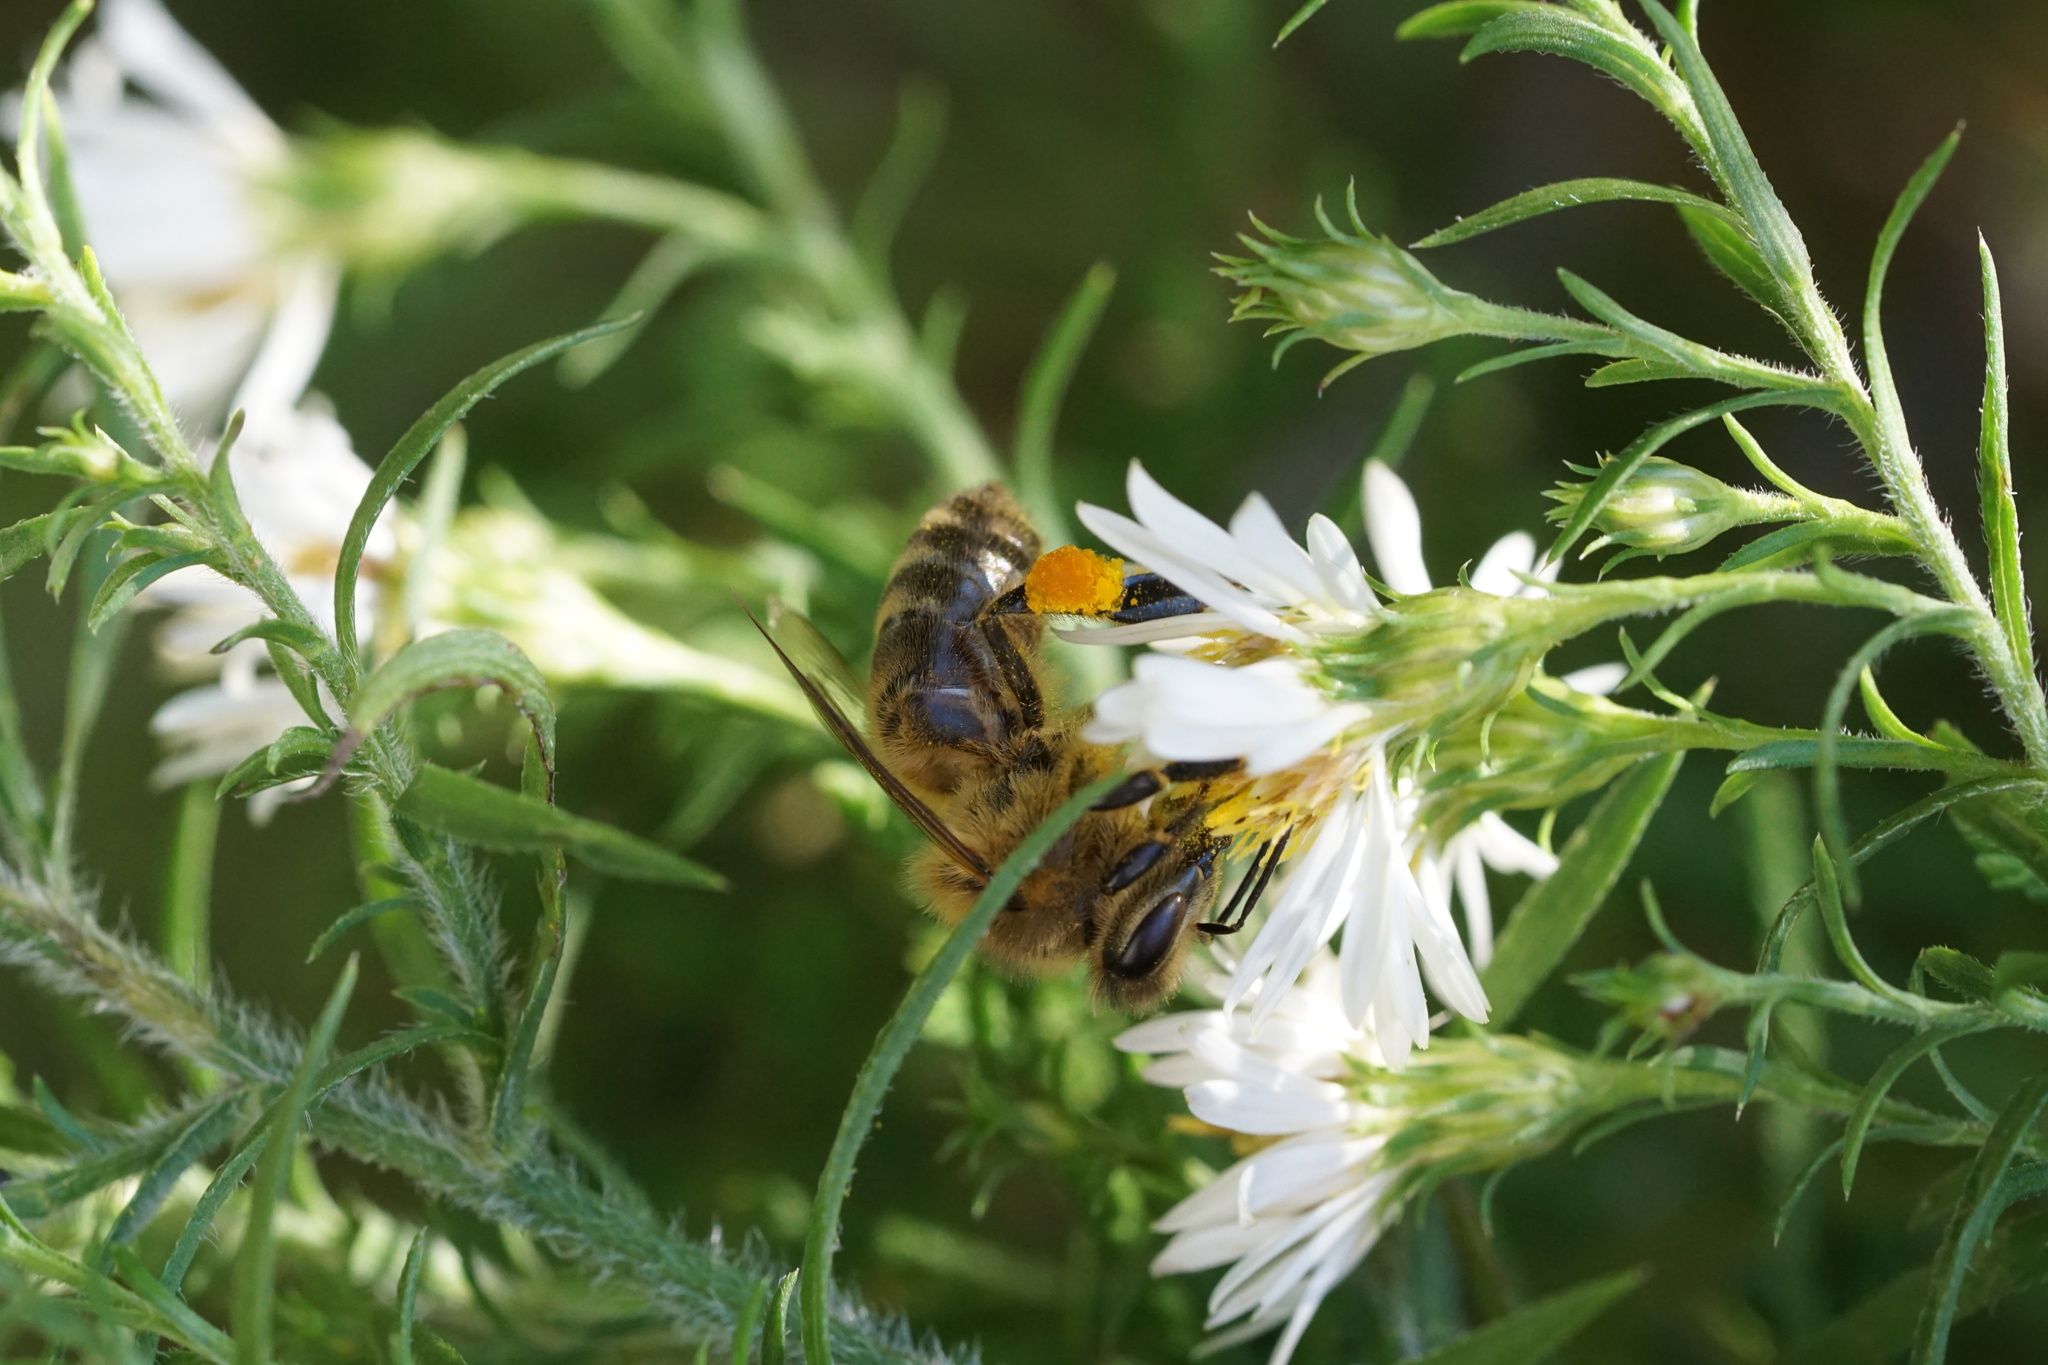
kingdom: Animalia
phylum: Arthropoda
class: Insecta
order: Hymenoptera
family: Apidae
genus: Apis
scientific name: Apis mellifera
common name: Honey bee
